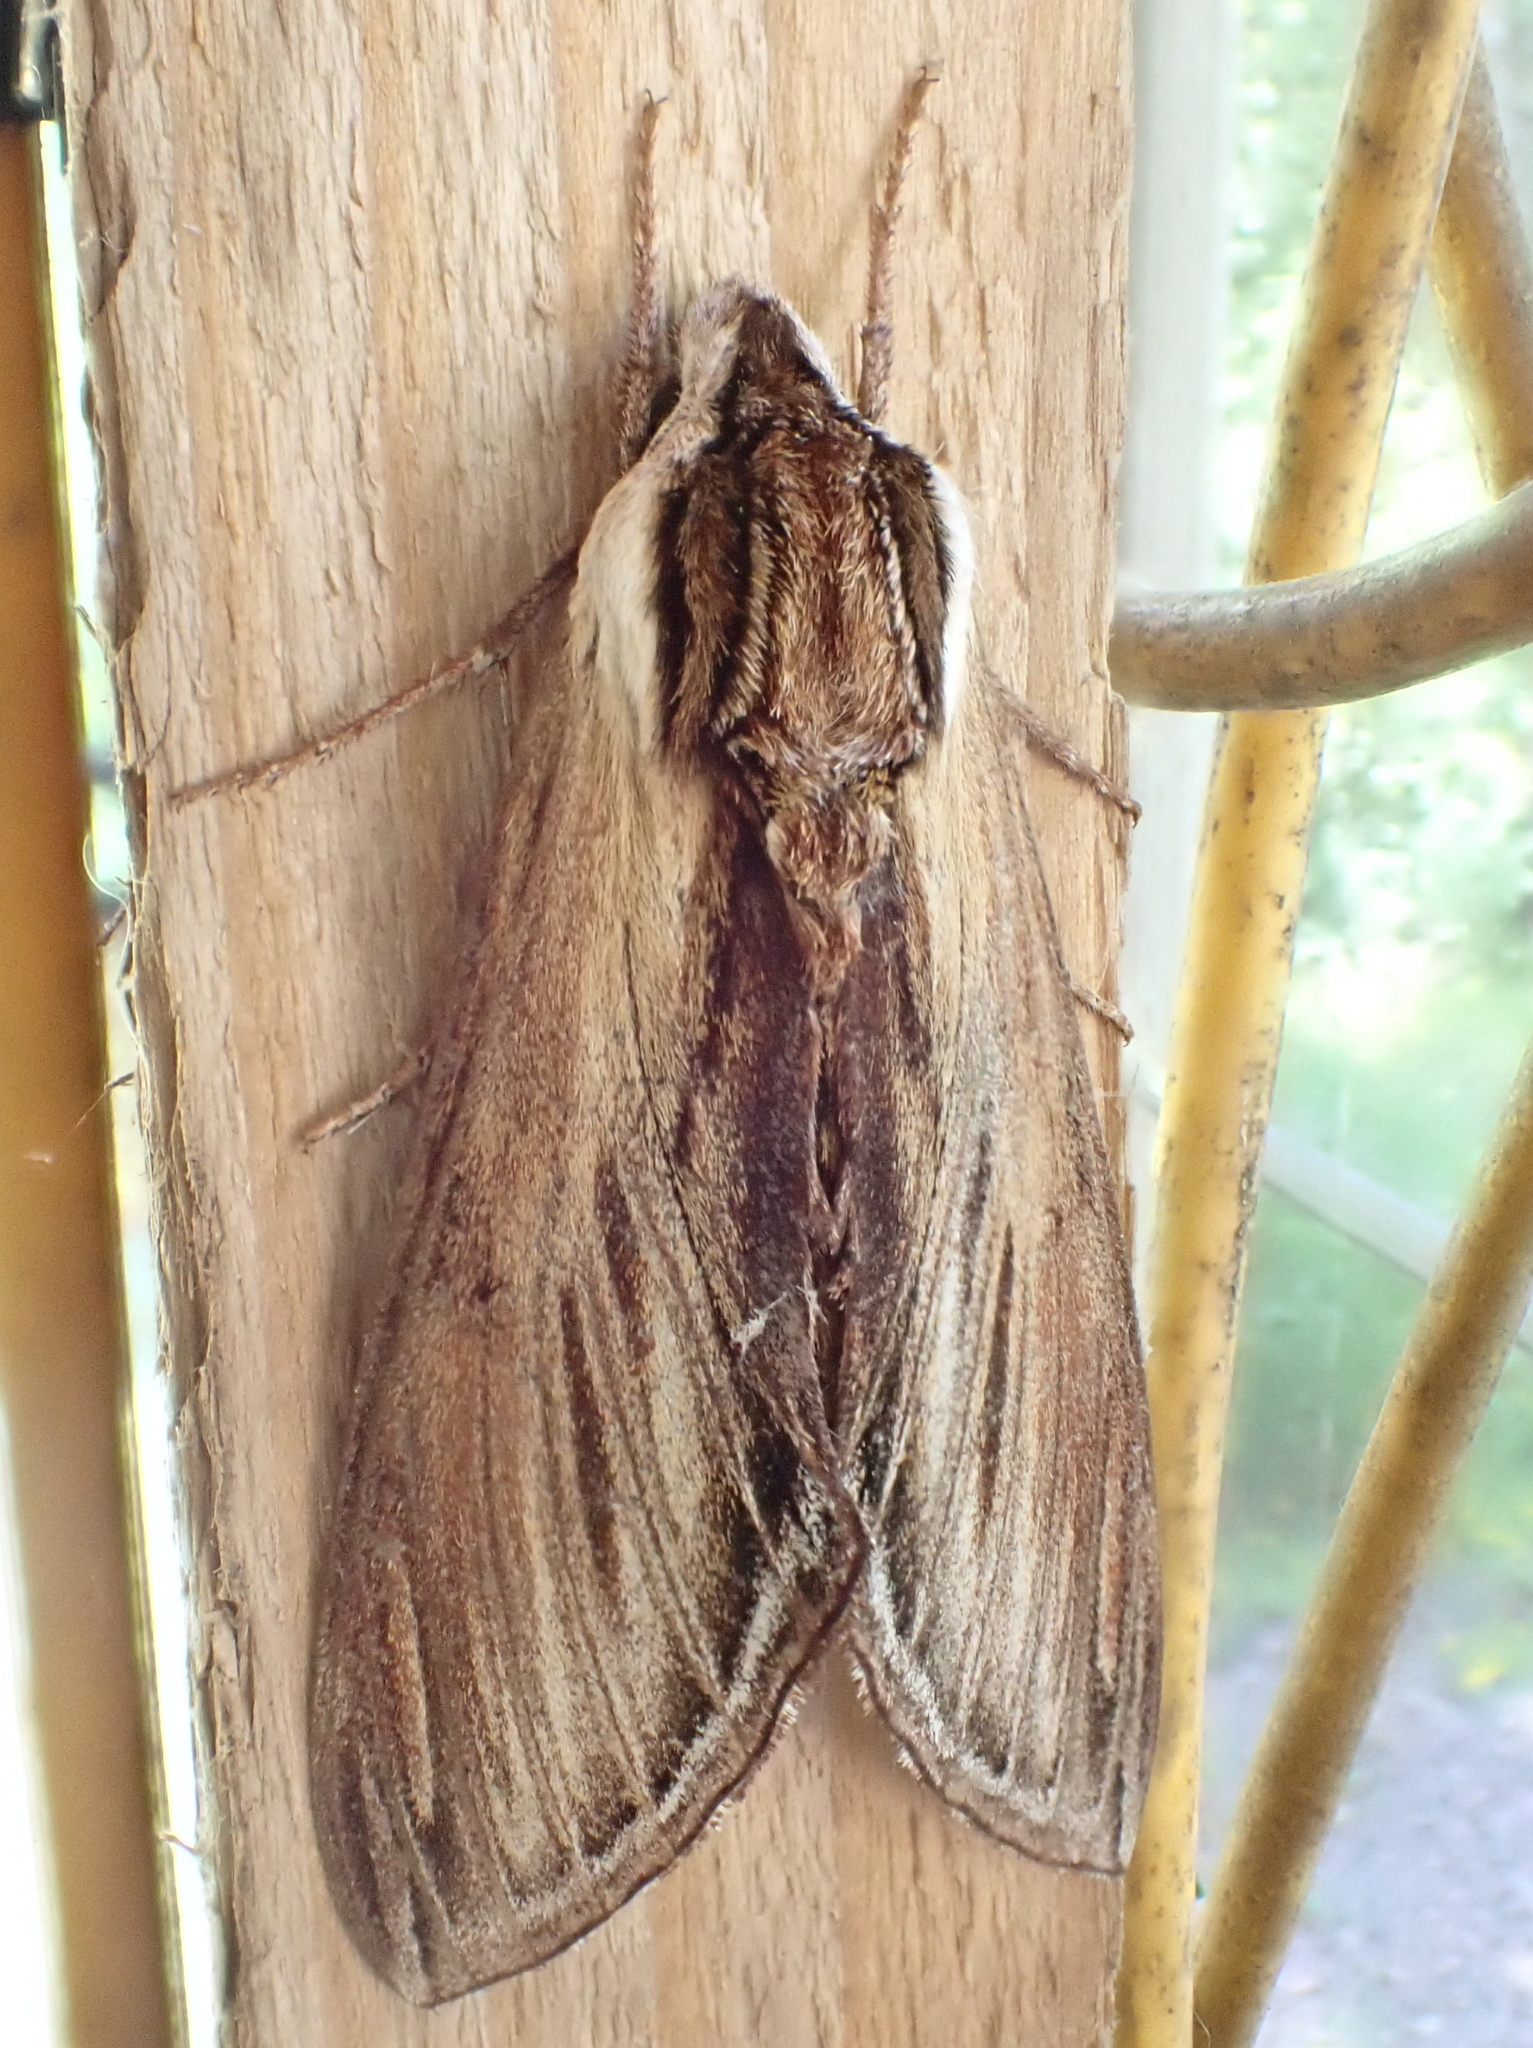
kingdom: Animalia
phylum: Arthropoda
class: Insecta
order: Lepidoptera
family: Sphingidae
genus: Sphinx
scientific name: Sphinx kalmiae
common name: Laurel sphinx
